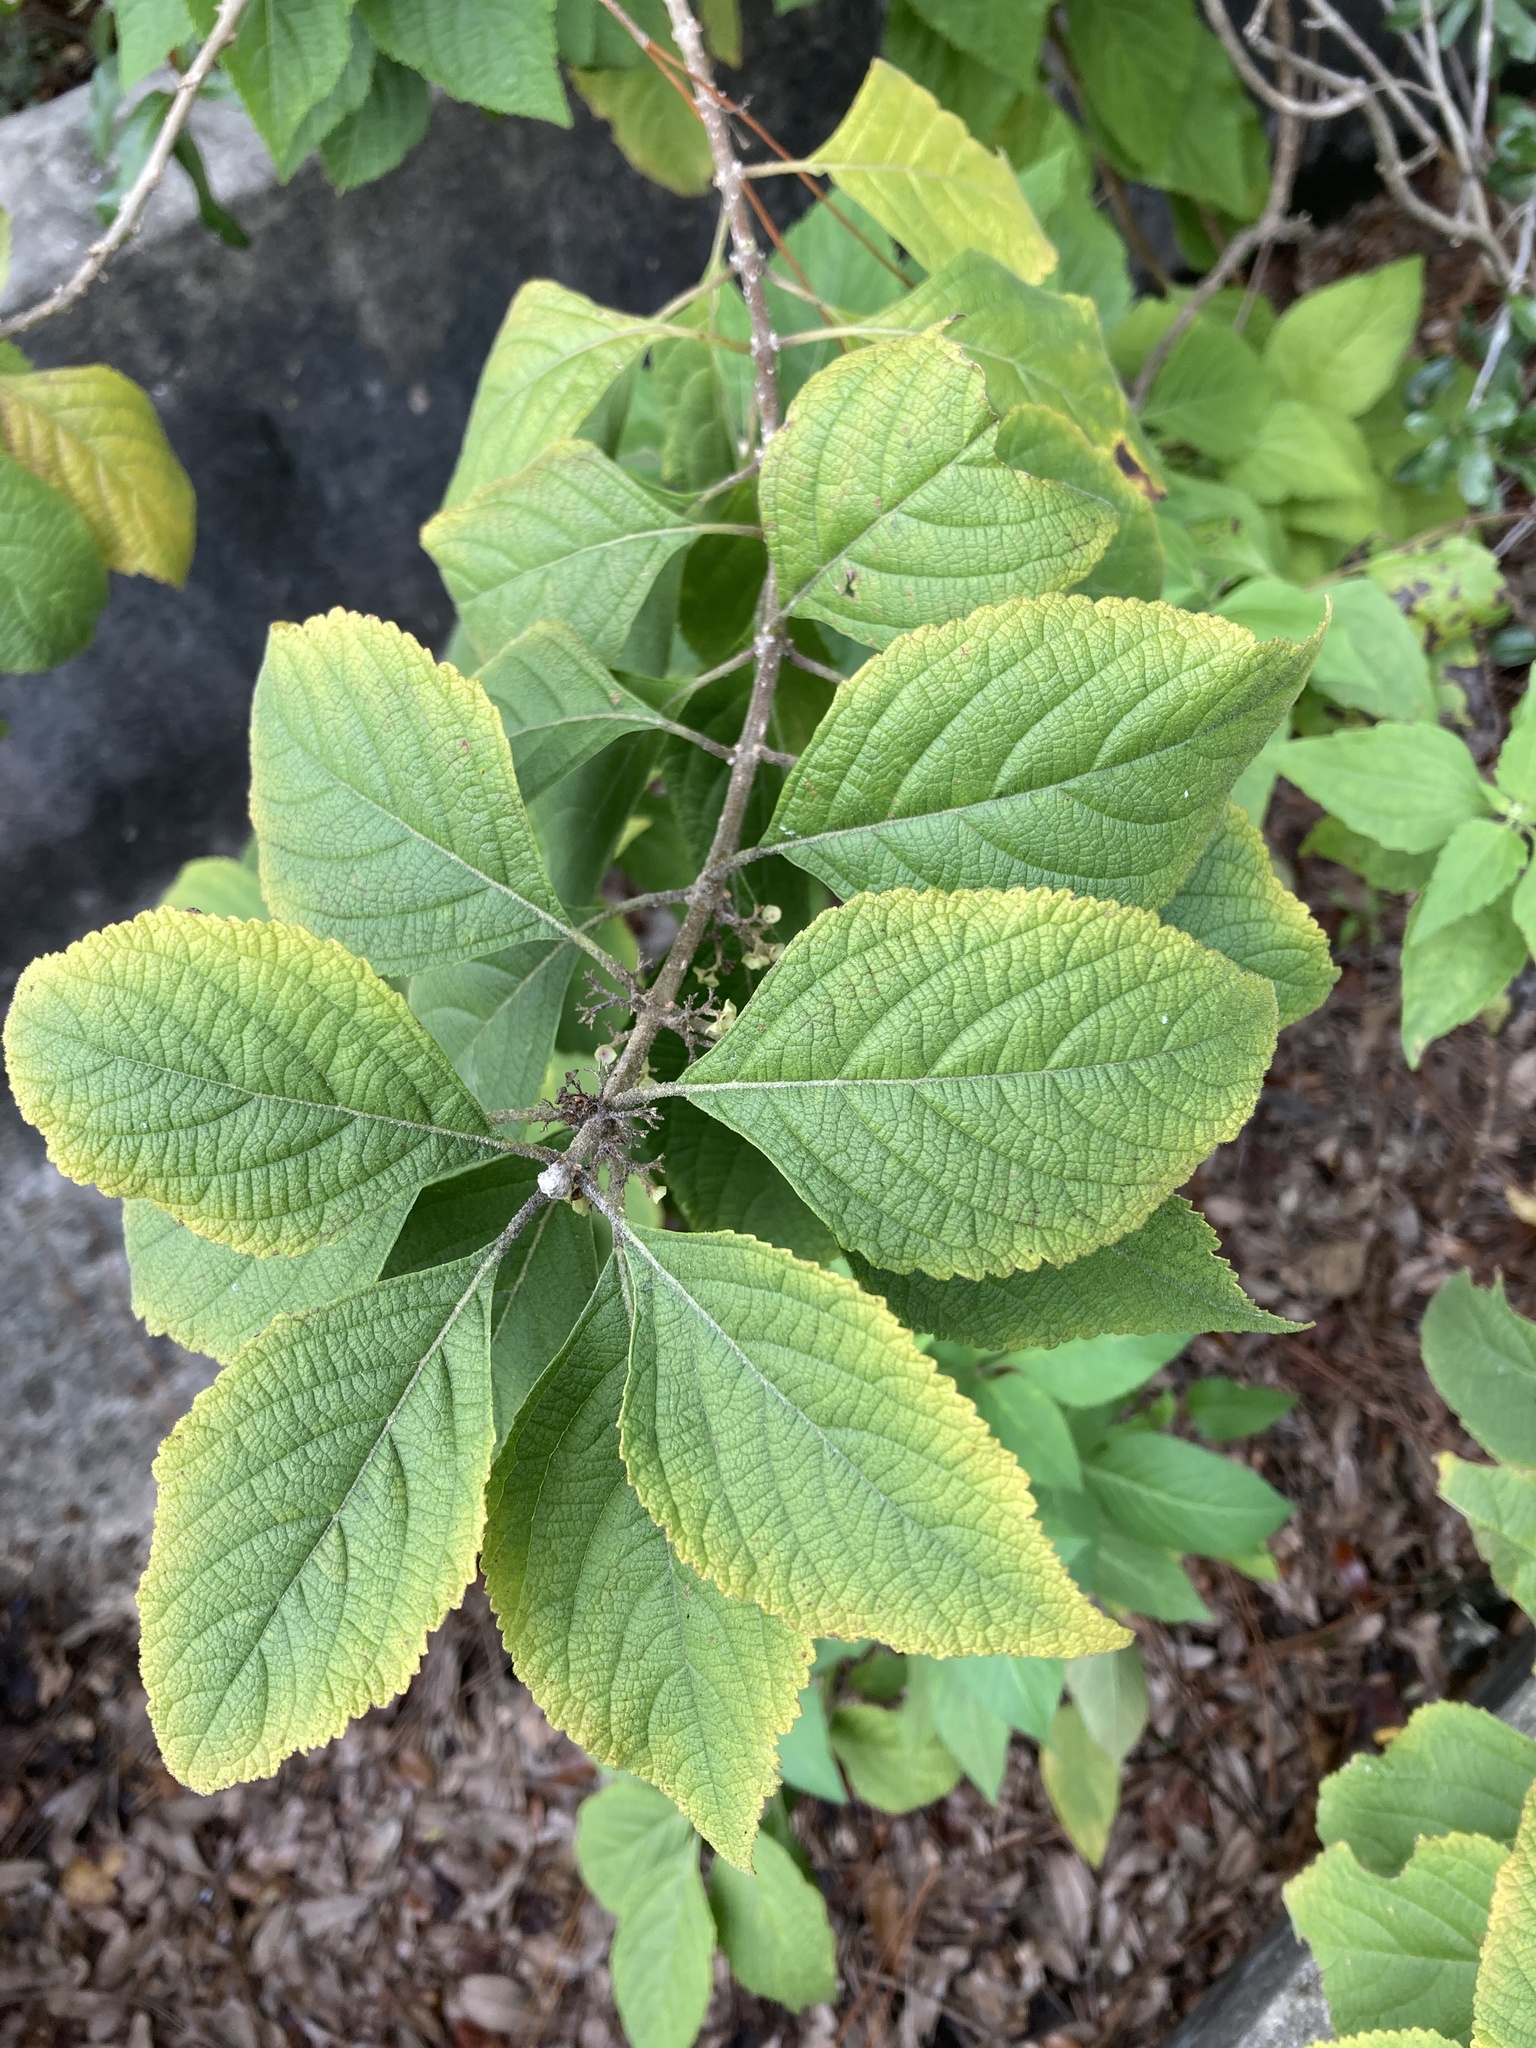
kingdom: Plantae
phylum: Tracheophyta
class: Magnoliopsida
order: Lamiales
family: Lamiaceae
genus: Callicarpa
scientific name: Callicarpa americana
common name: American beautyberry
